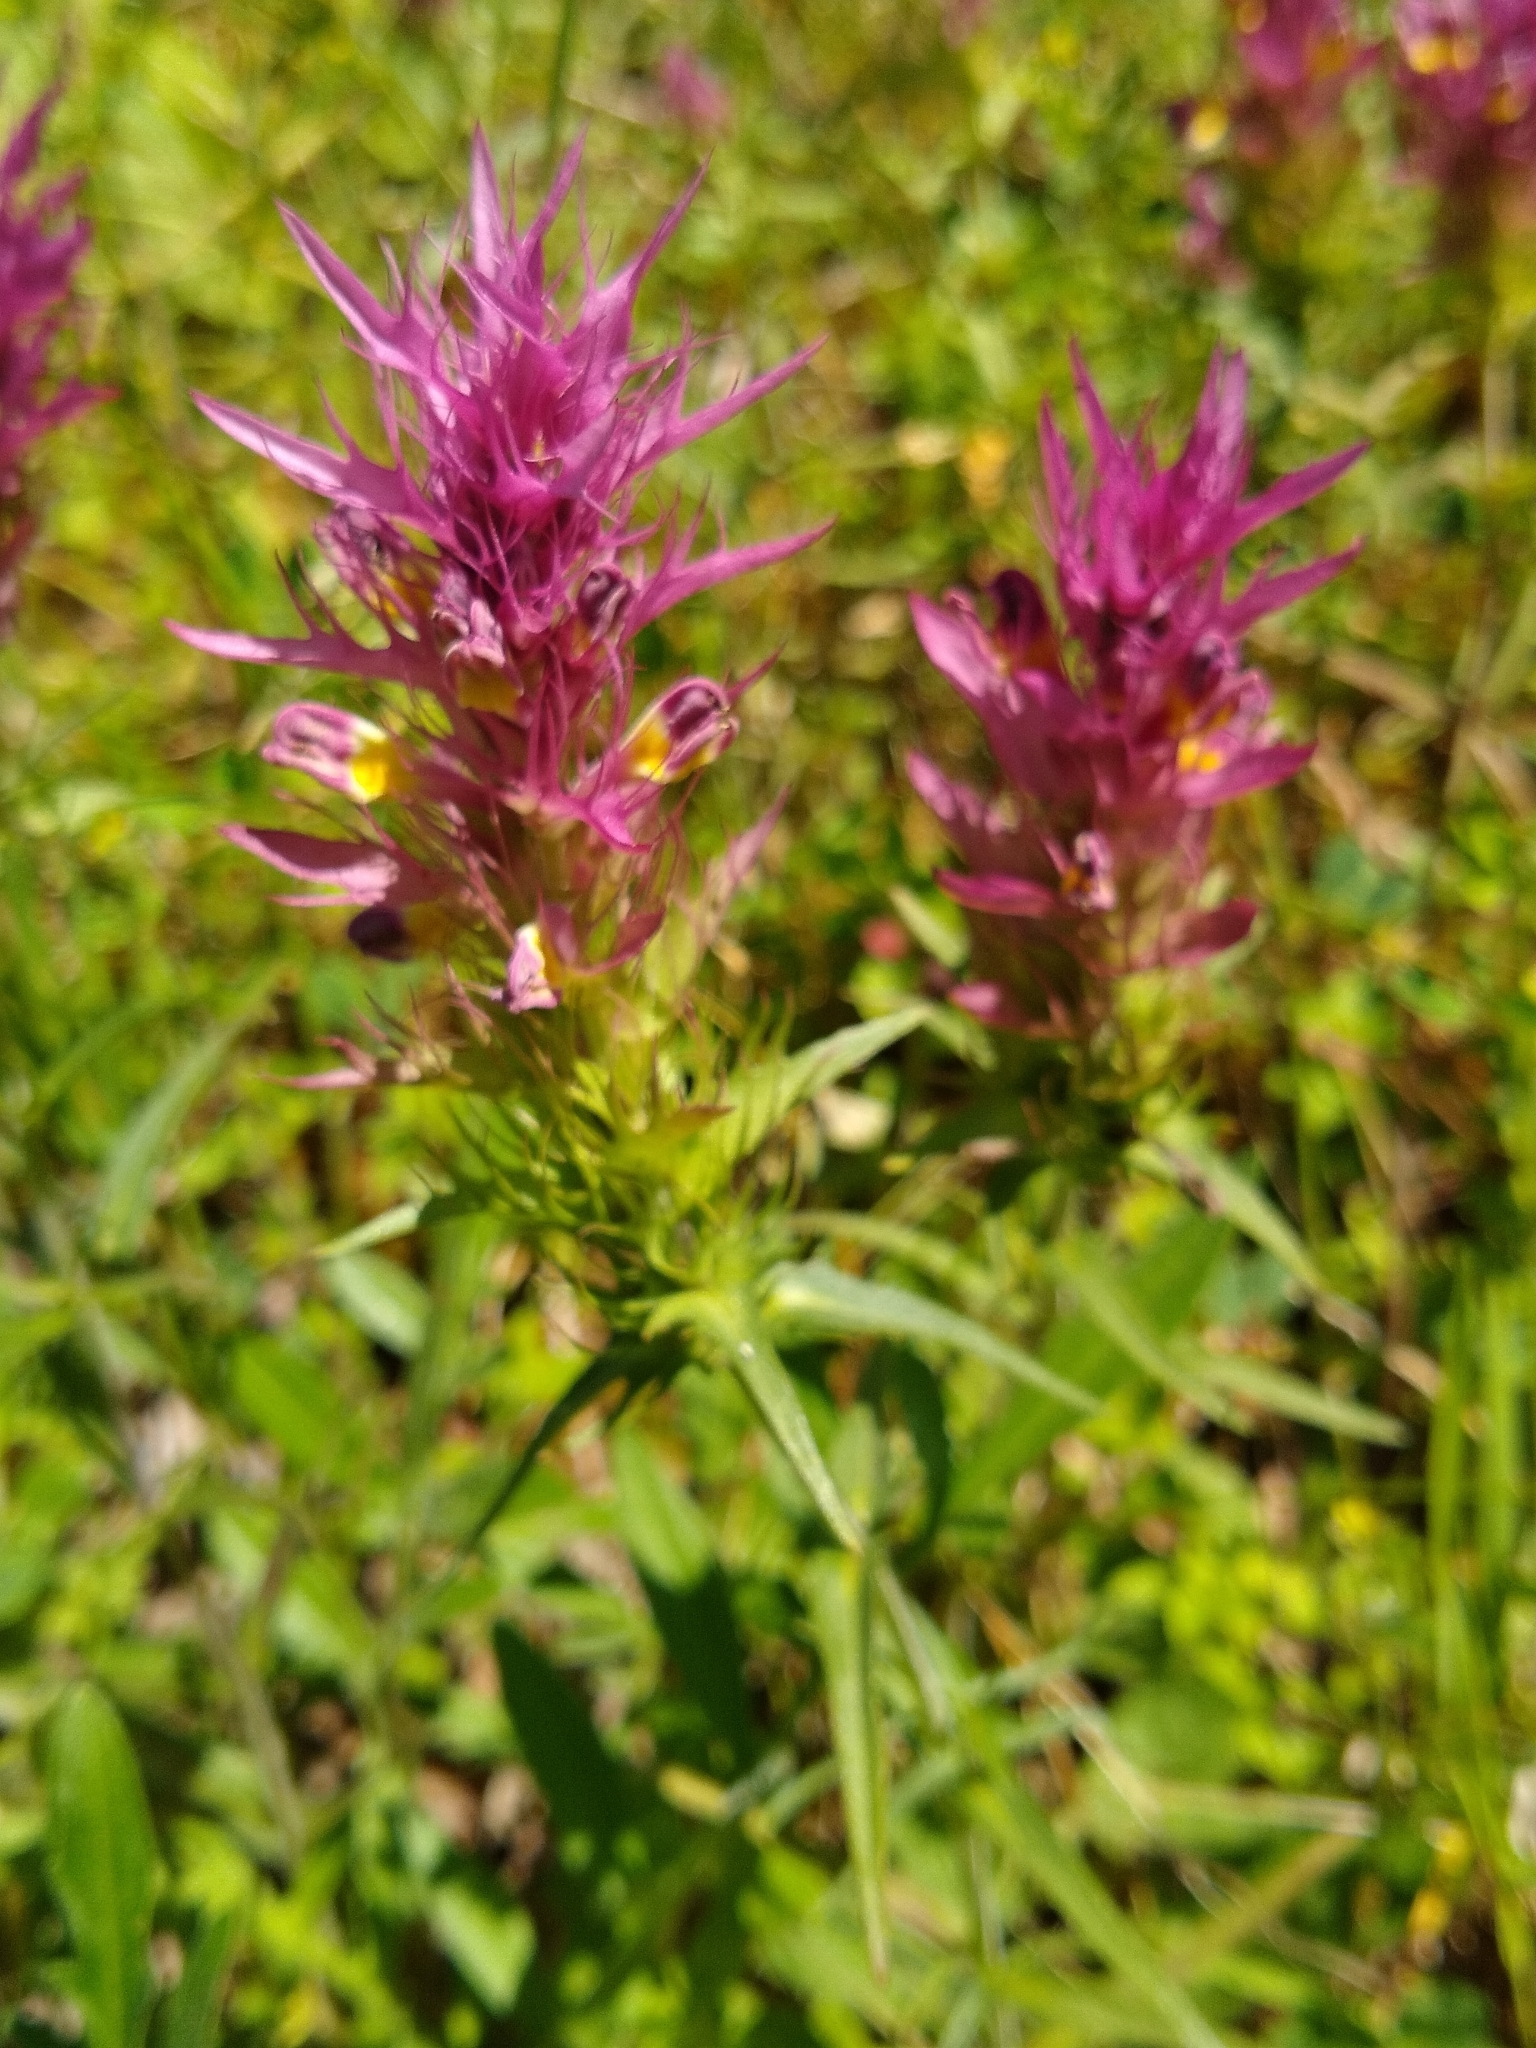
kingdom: Plantae
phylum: Tracheophyta
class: Magnoliopsida
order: Lamiales
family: Orobanchaceae
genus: Melampyrum
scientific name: Melampyrum arvense
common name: Field cow-wheat
